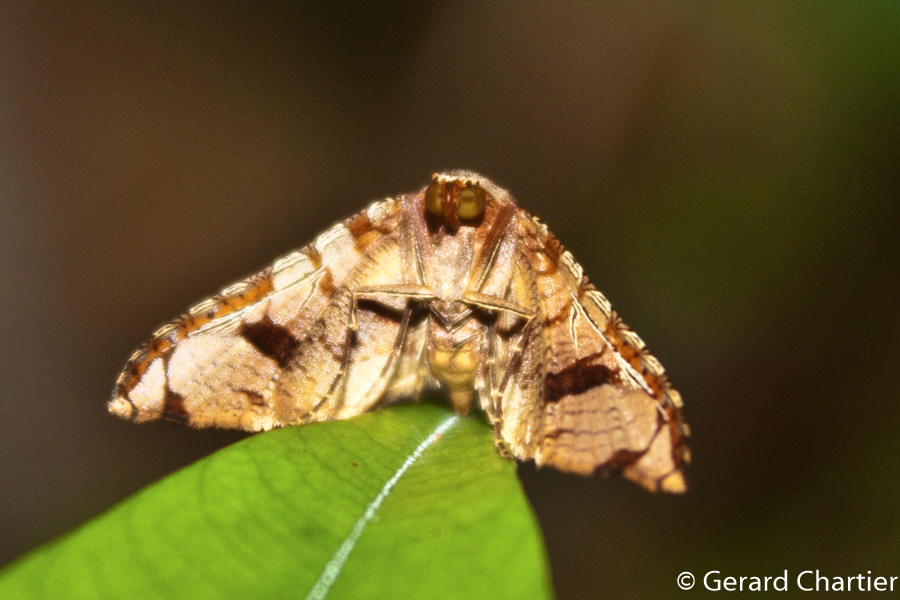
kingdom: Animalia
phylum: Arthropoda
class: Insecta
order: Lepidoptera
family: Thyrididae
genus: Collinsa
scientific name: Collinsa
